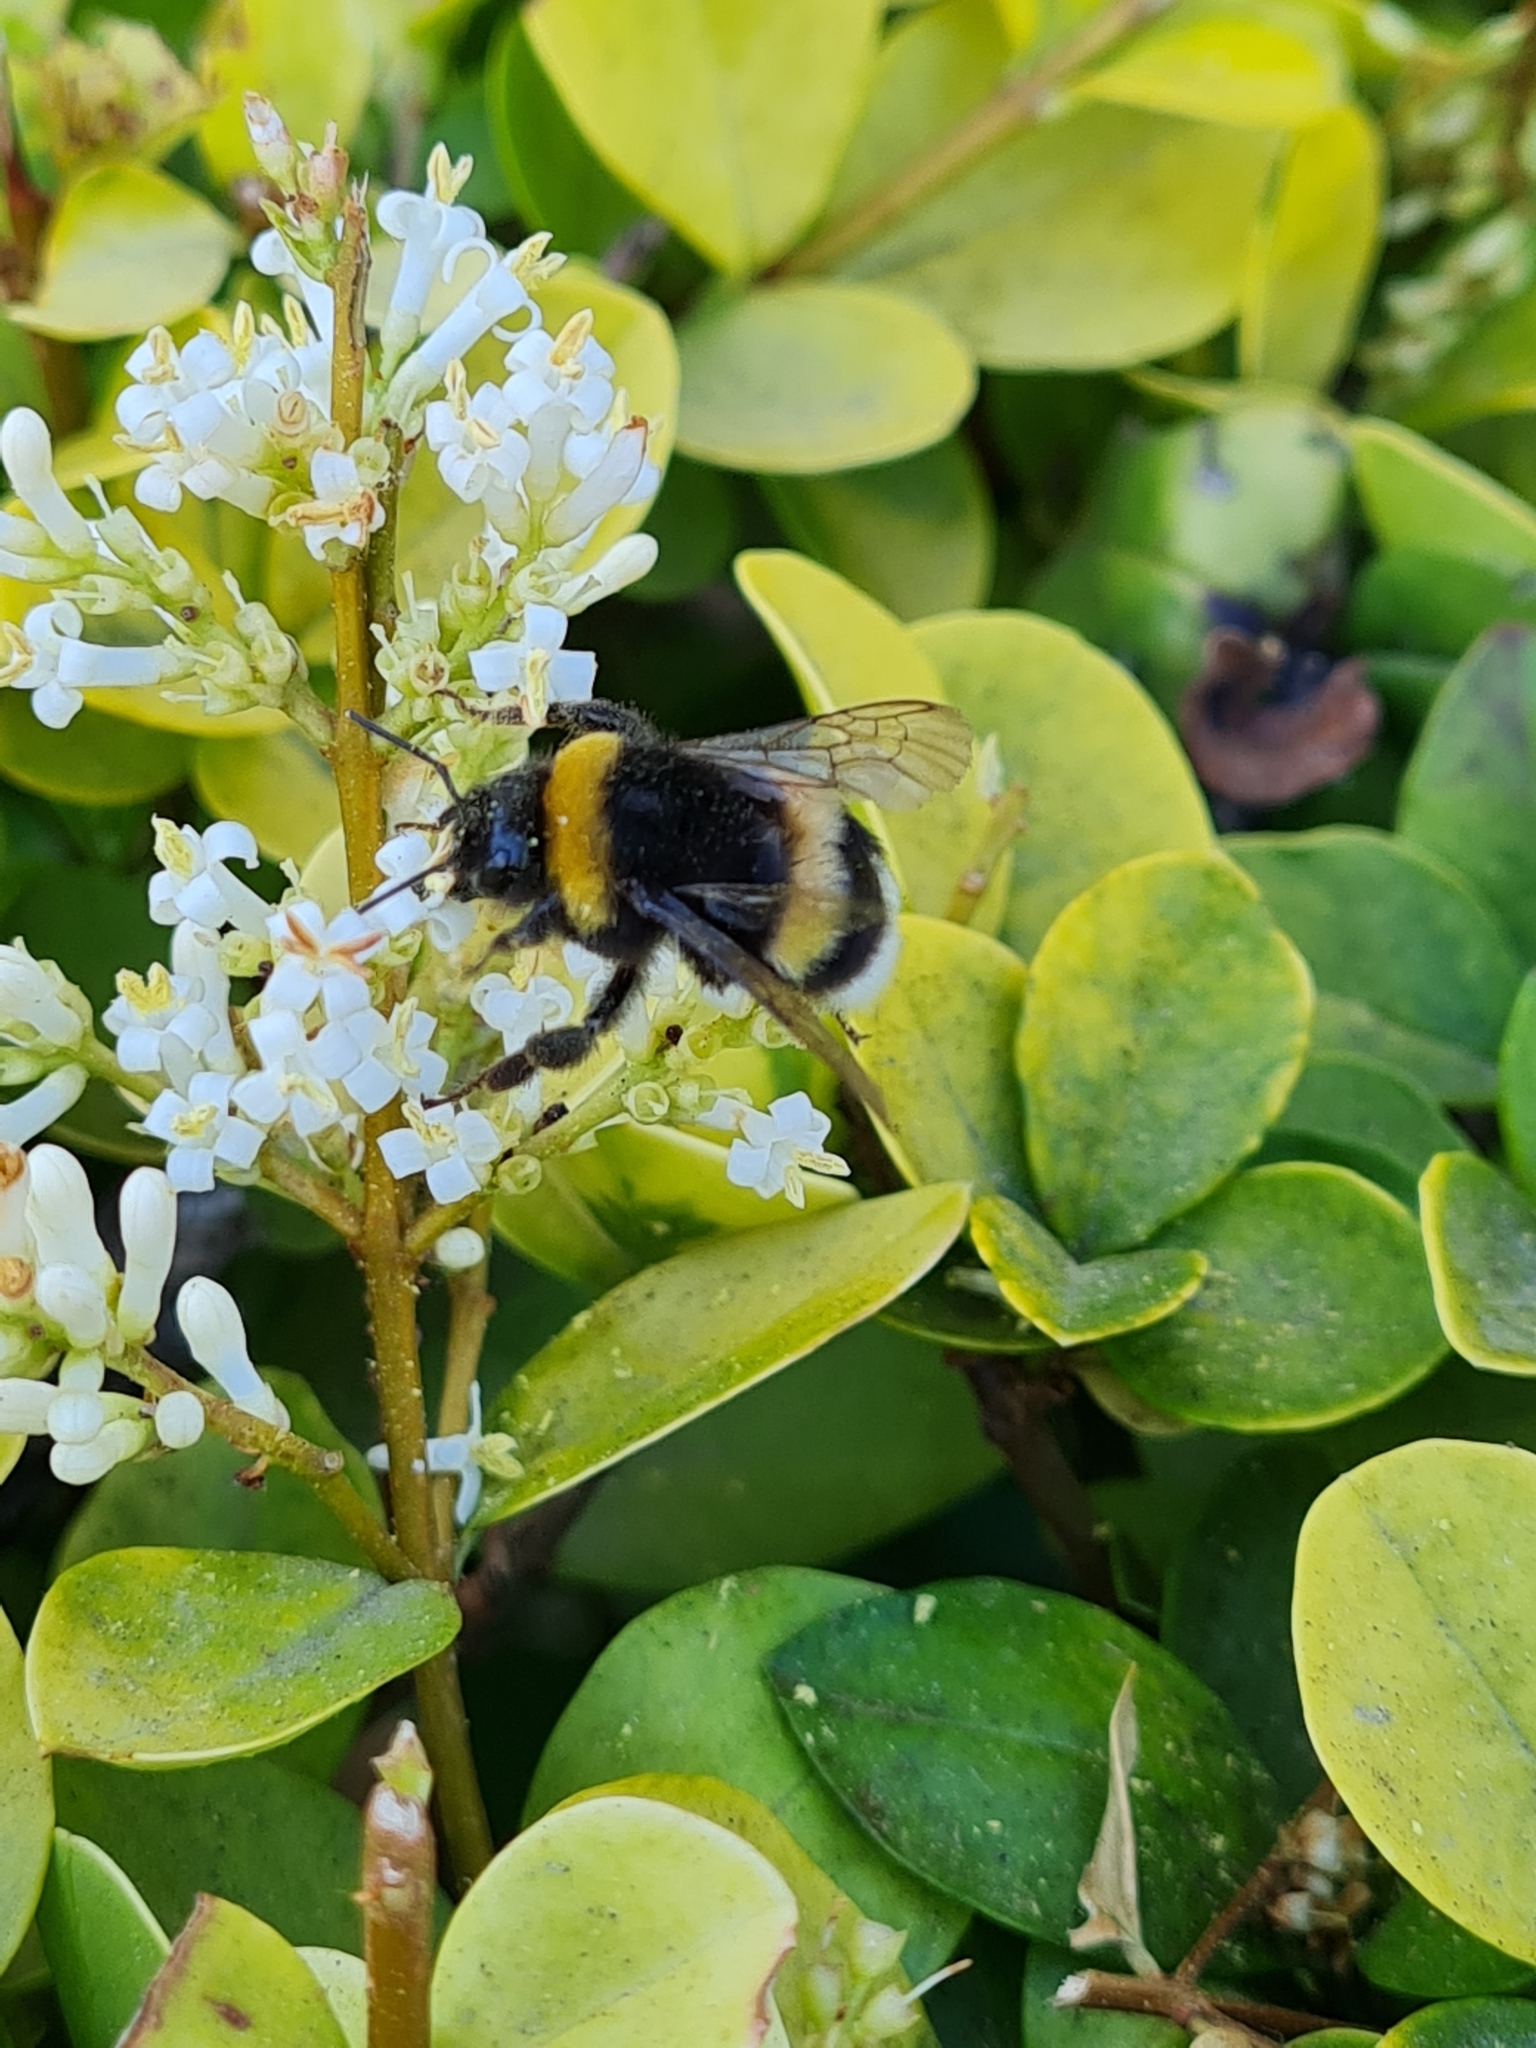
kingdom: Animalia
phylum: Arthropoda
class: Insecta
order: Hymenoptera
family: Apidae
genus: Bombus
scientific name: Bombus terrestris
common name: Buff-tailed bumblebee
